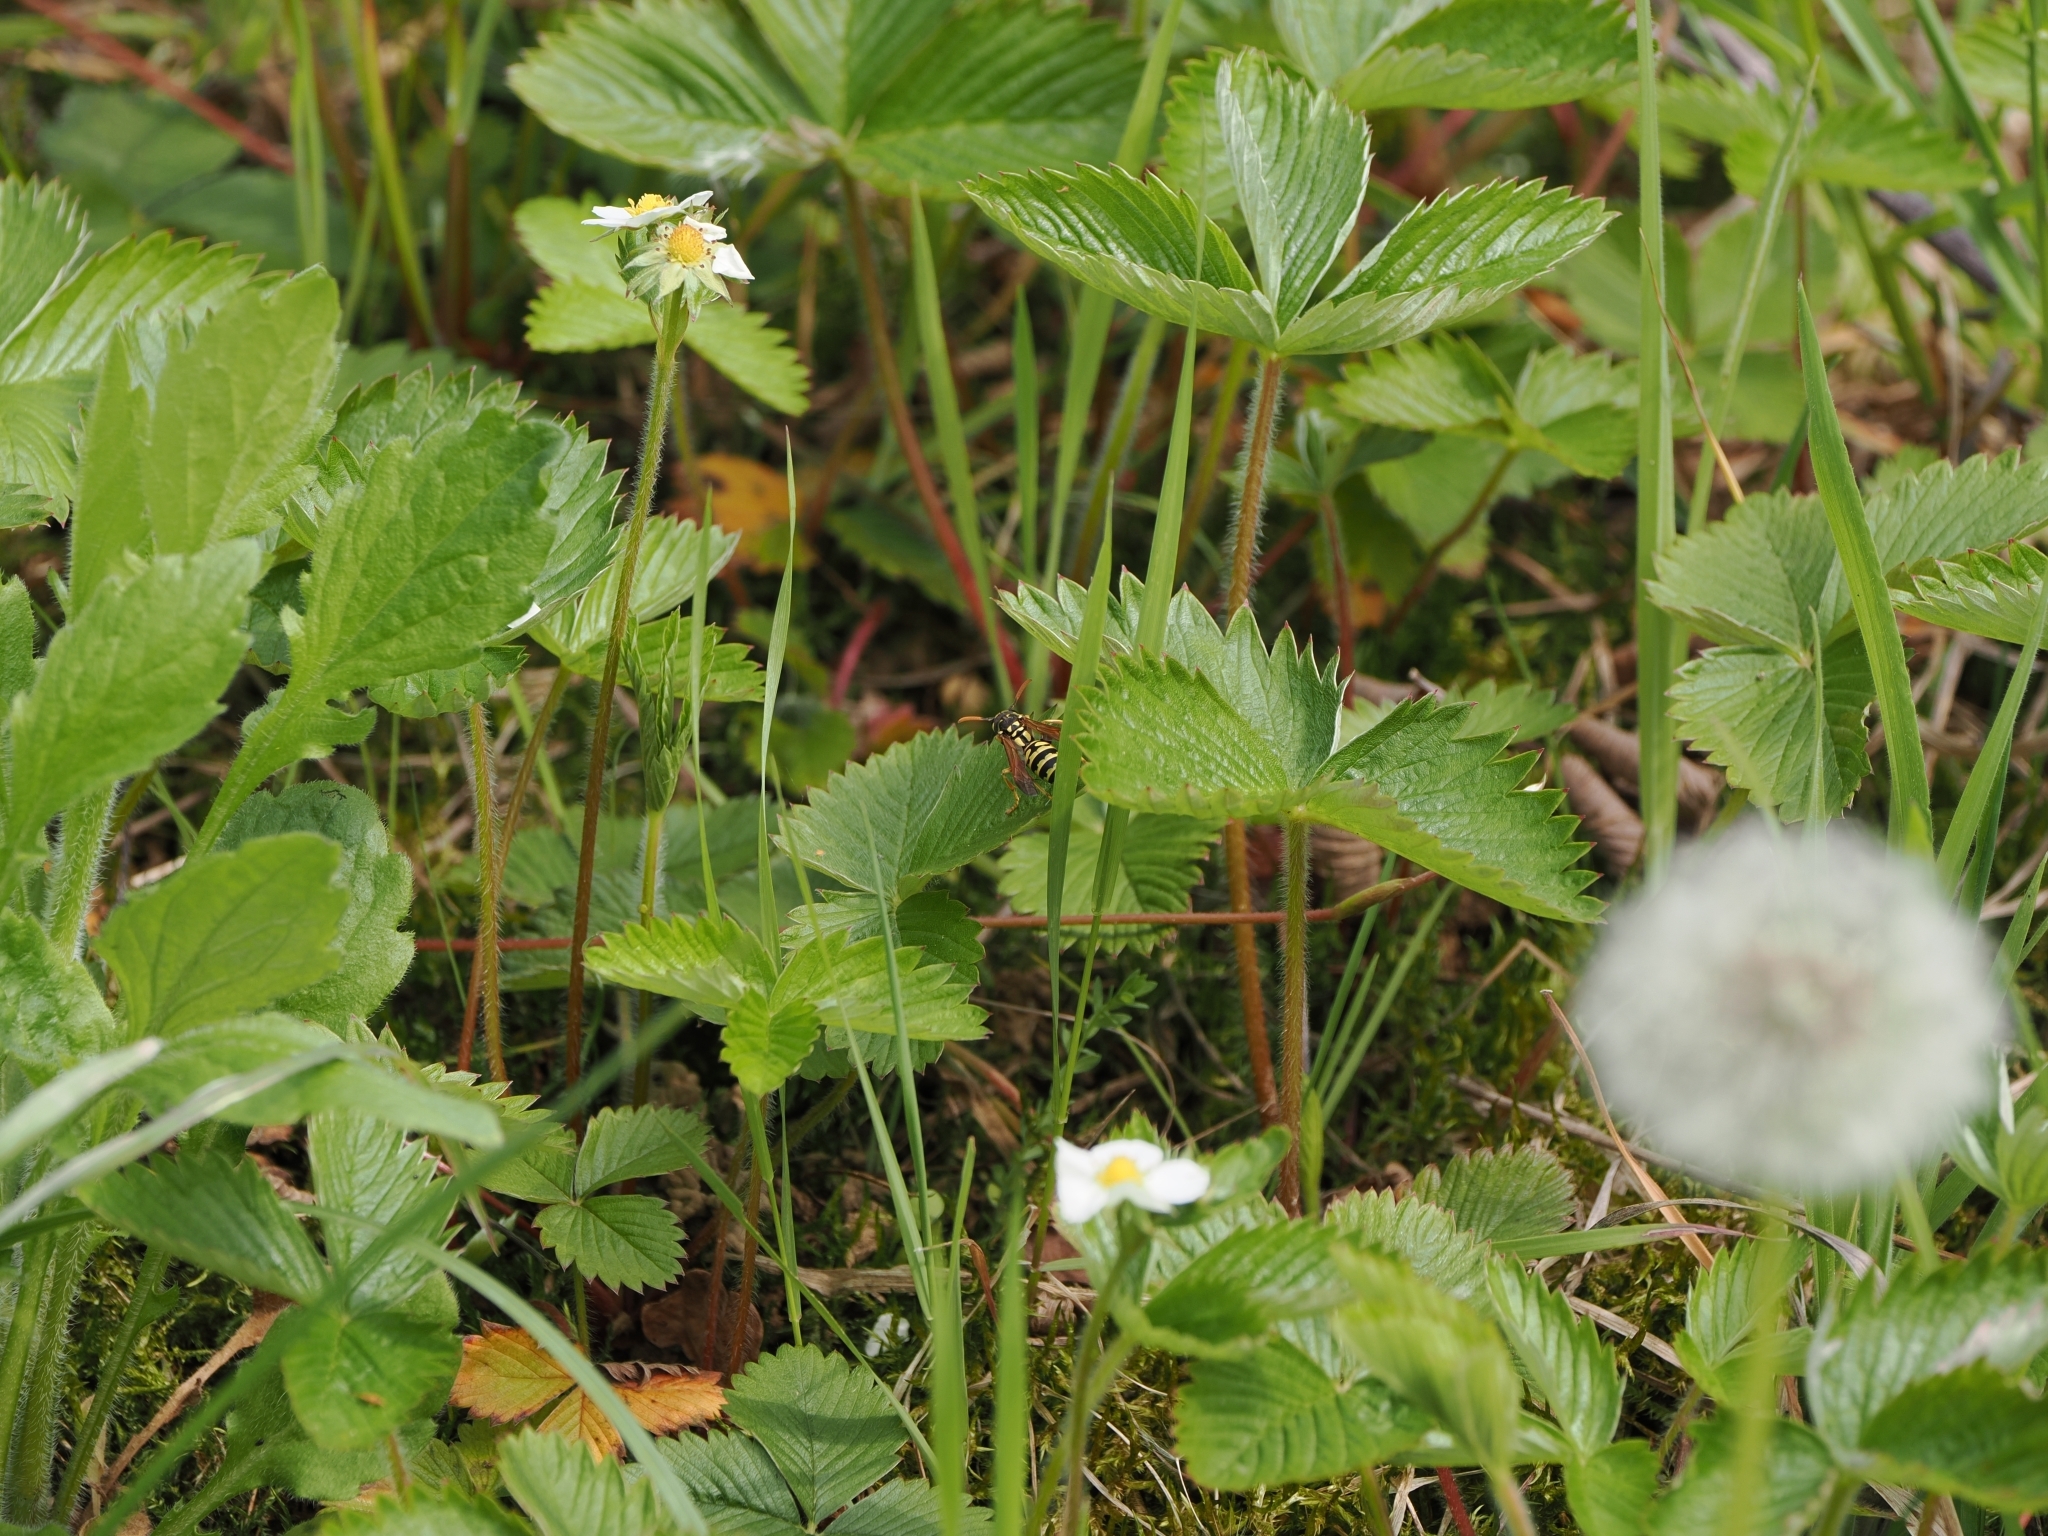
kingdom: Animalia
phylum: Arthropoda
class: Insecta
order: Hymenoptera
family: Eumenidae
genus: Polistes
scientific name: Polistes dominula
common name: Paper wasp
